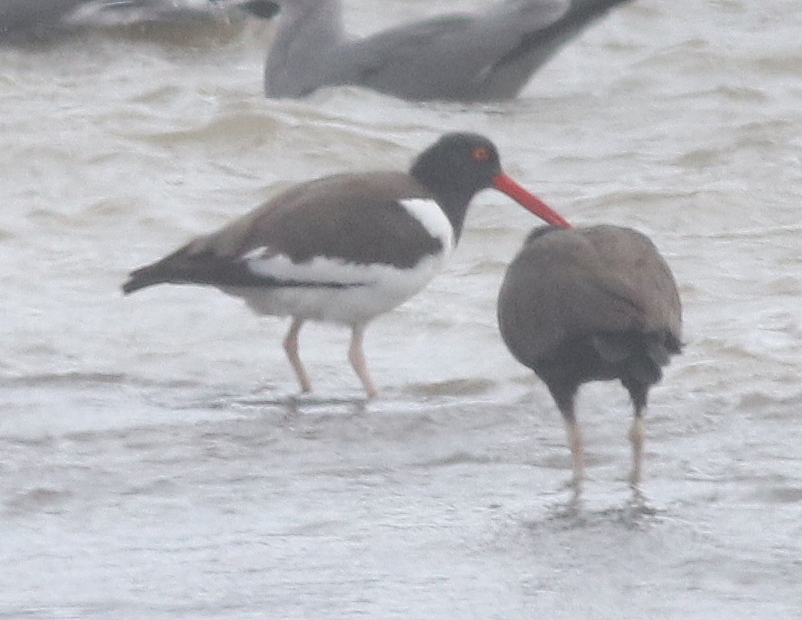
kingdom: Animalia
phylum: Chordata
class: Aves
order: Charadriiformes
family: Haematopodidae
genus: Haematopus
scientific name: Haematopus palliatus
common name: American oystercatcher
